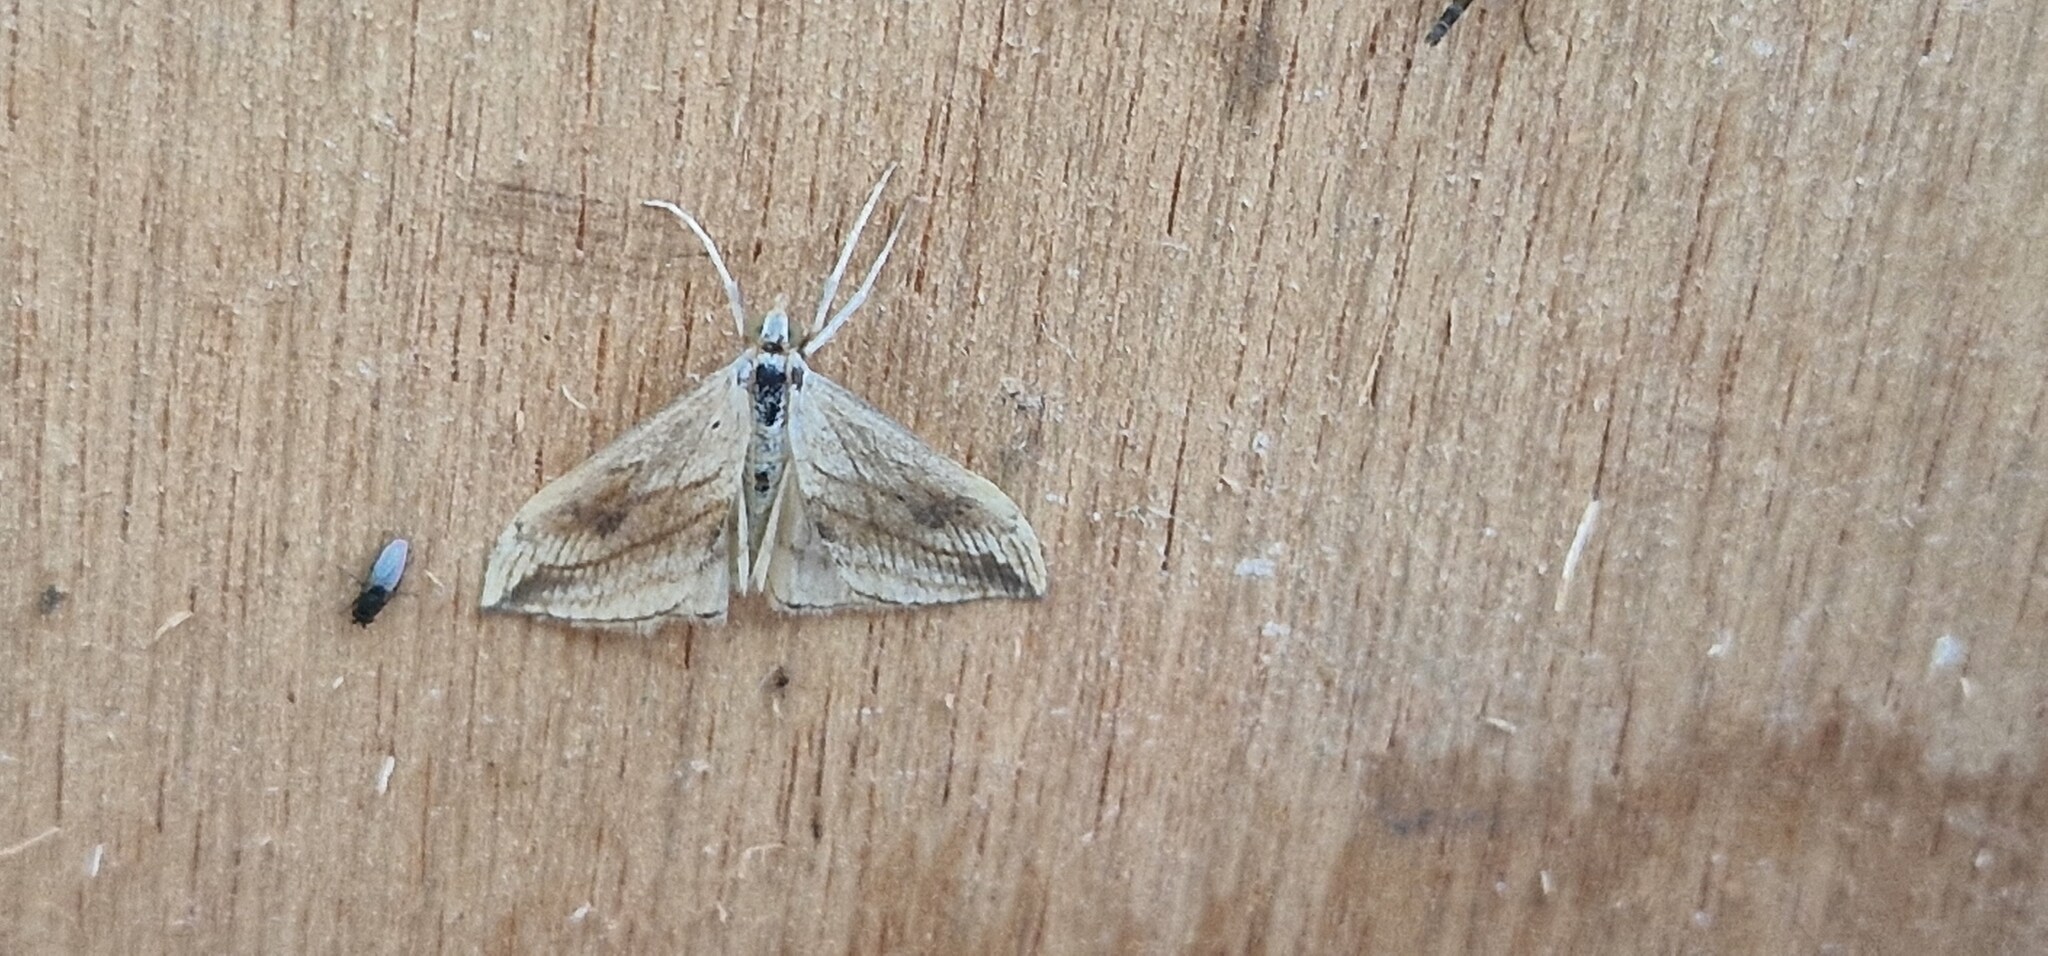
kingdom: Animalia
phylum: Arthropoda
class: Insecta
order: Lepidoptera
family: Crambidae
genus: Evergestis
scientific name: Evergestis forficalis
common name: Garden pebble
